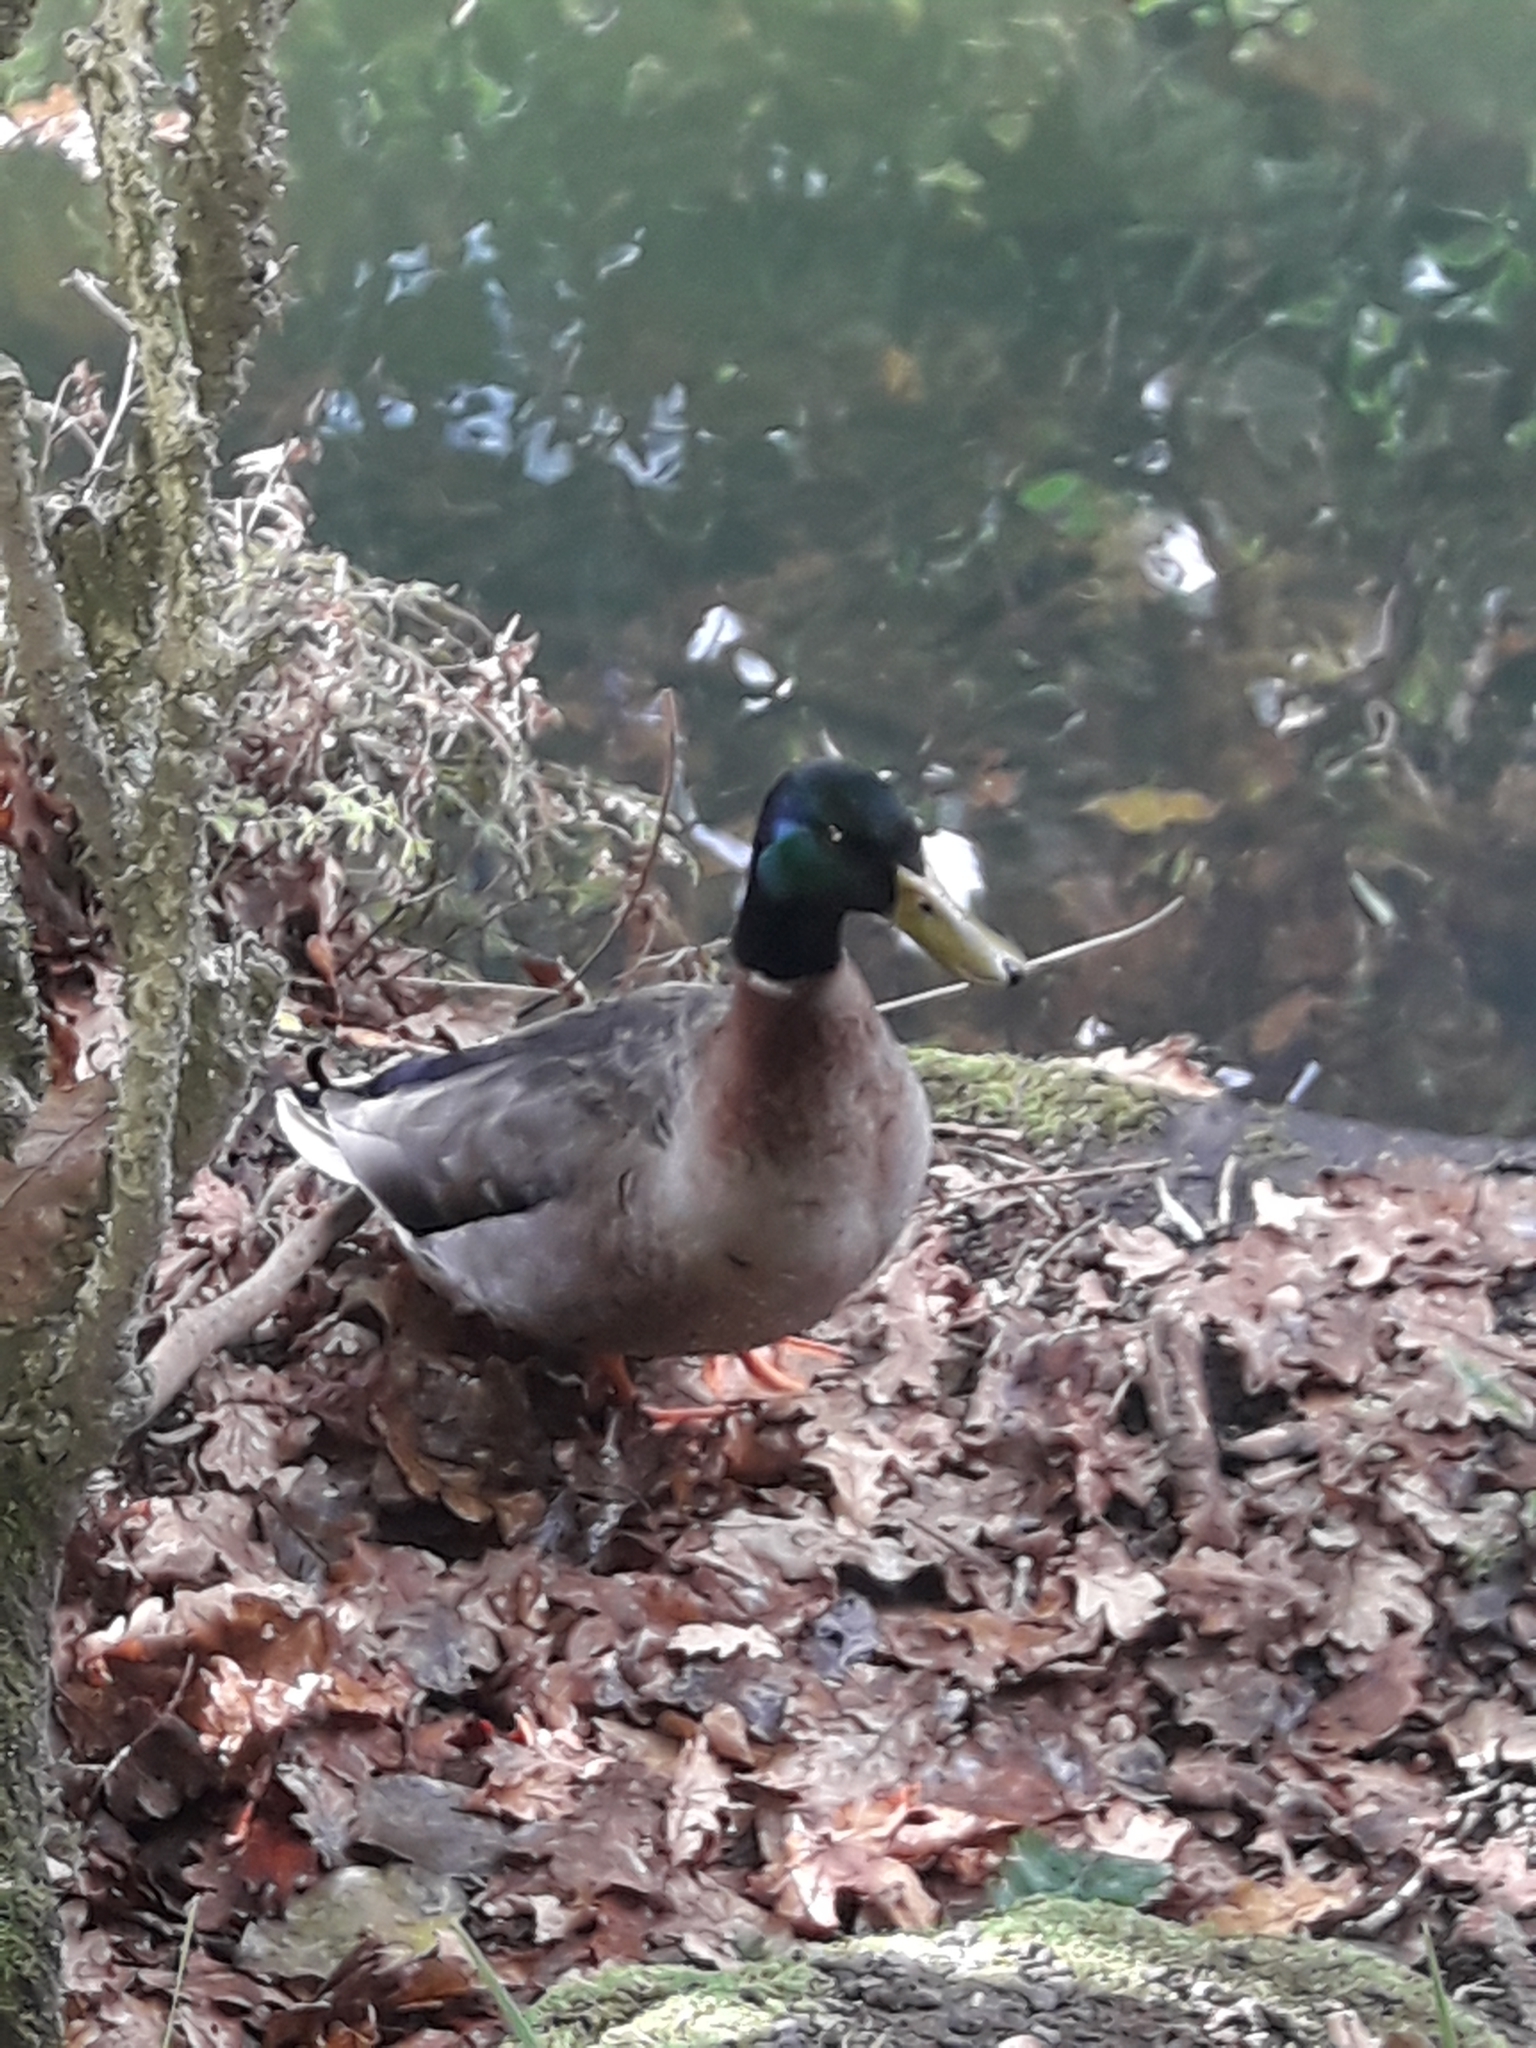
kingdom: Animalia
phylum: Chordata
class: Aves
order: Anseriformes
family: Anatidae
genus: Anas
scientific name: Anas platyrhynchos
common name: Mallard
